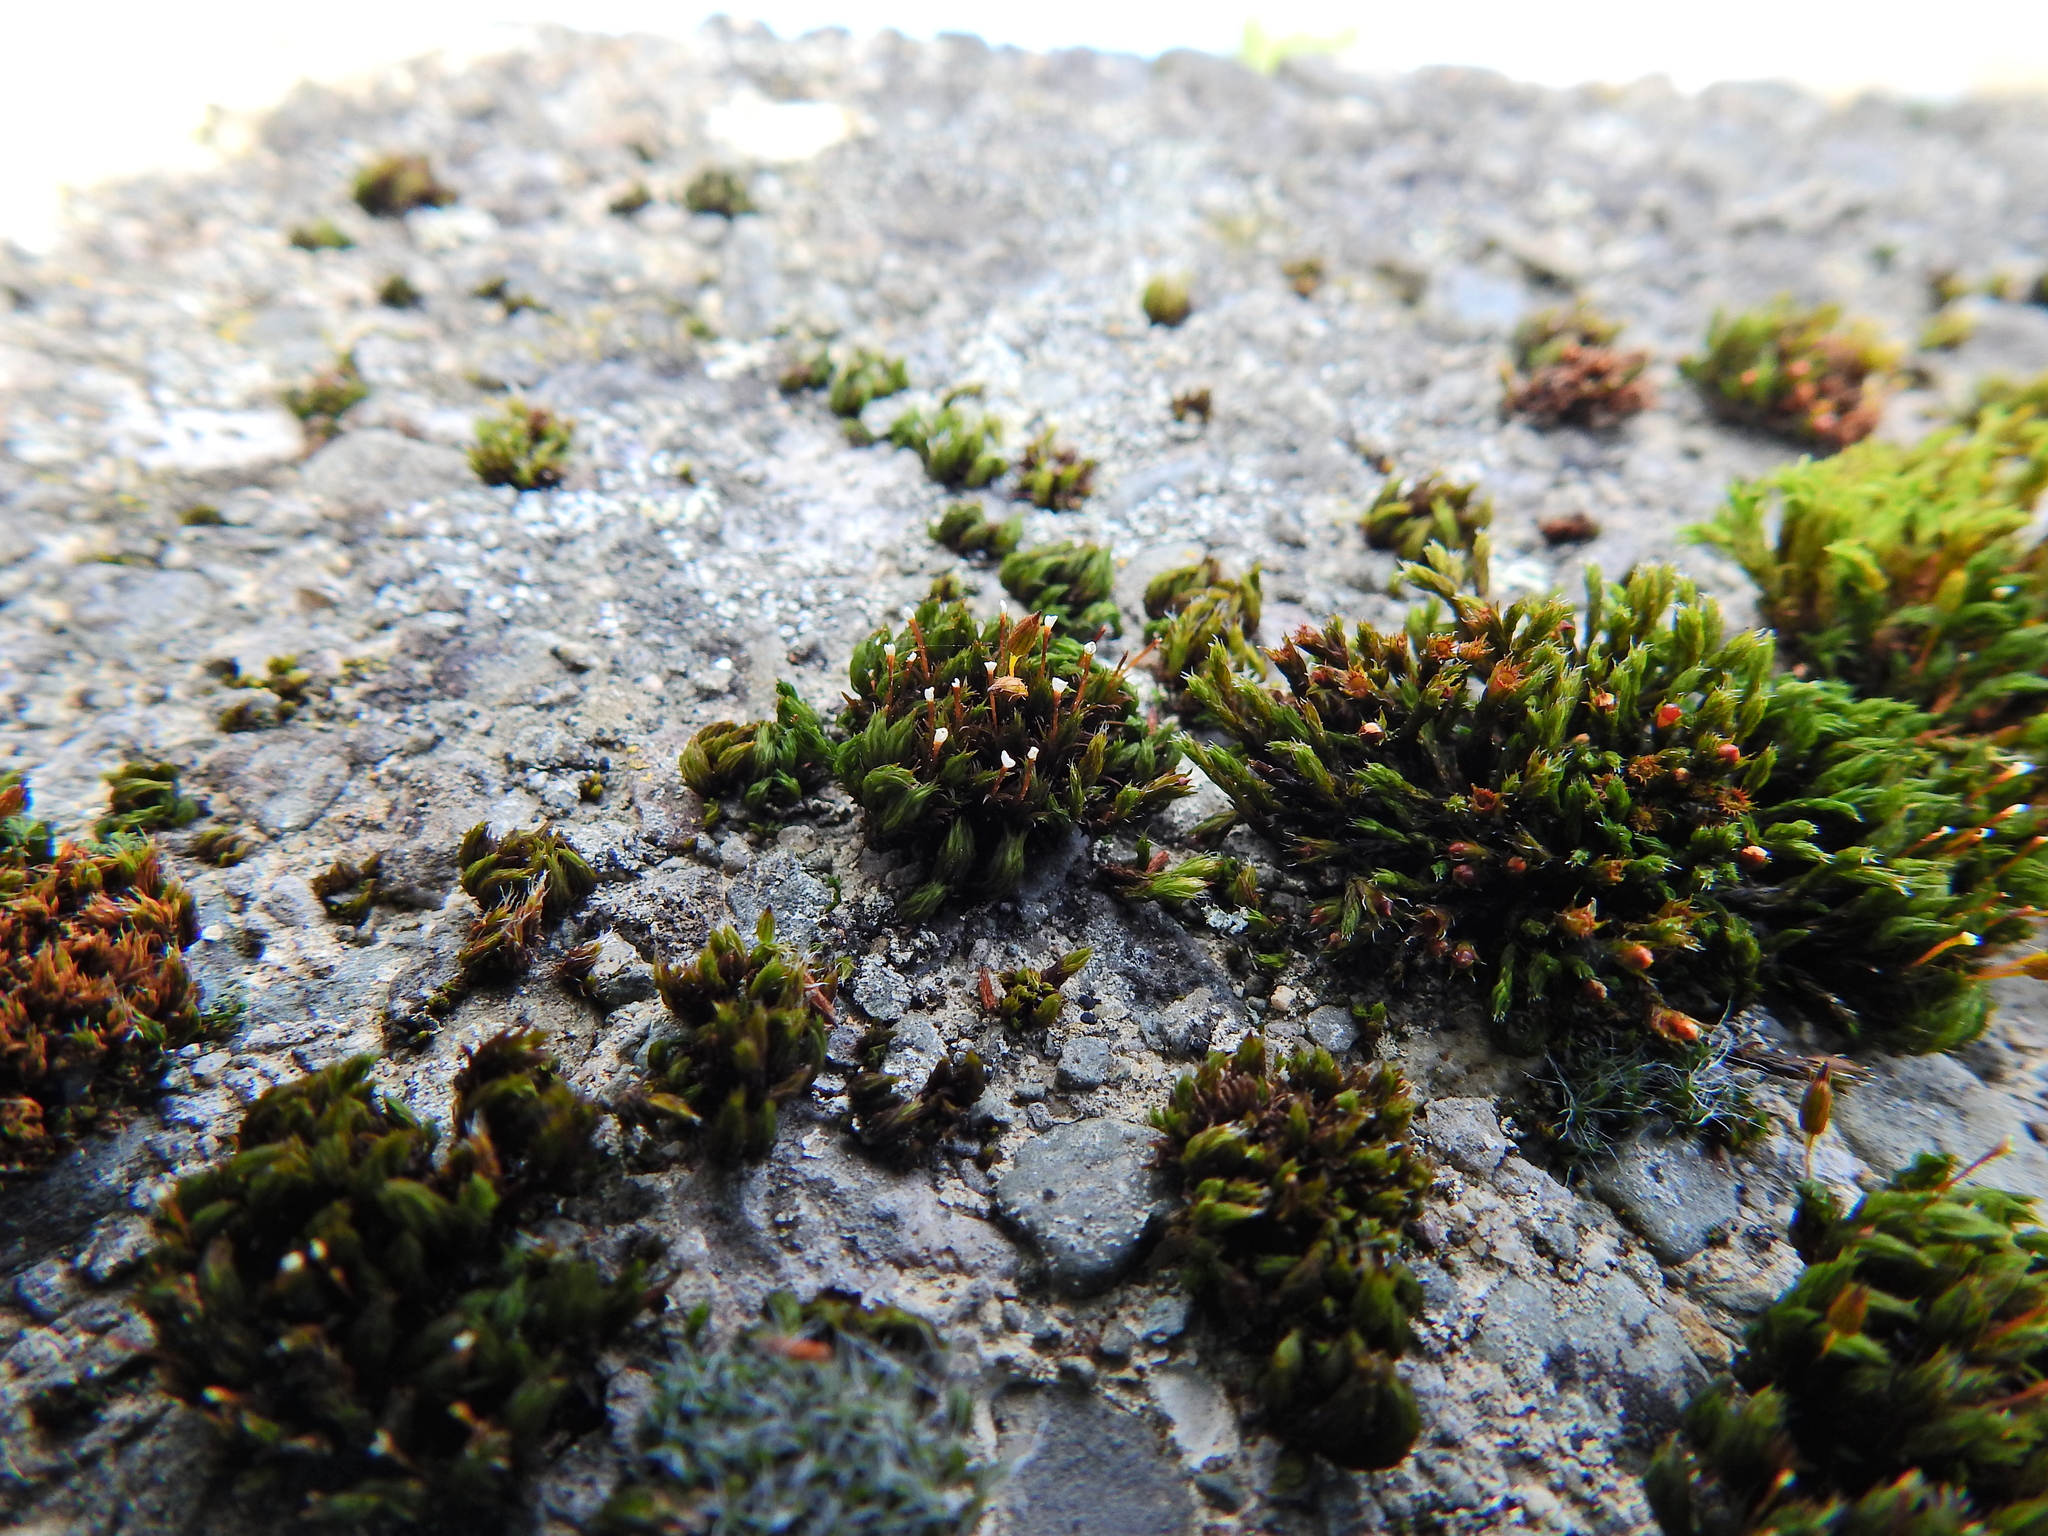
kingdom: Plantae
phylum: Bryophyta
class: Bryopsida
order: Orthotrichales
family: Orthotrichaceae
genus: Orthotrichum
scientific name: Orthotrichum anomalum
